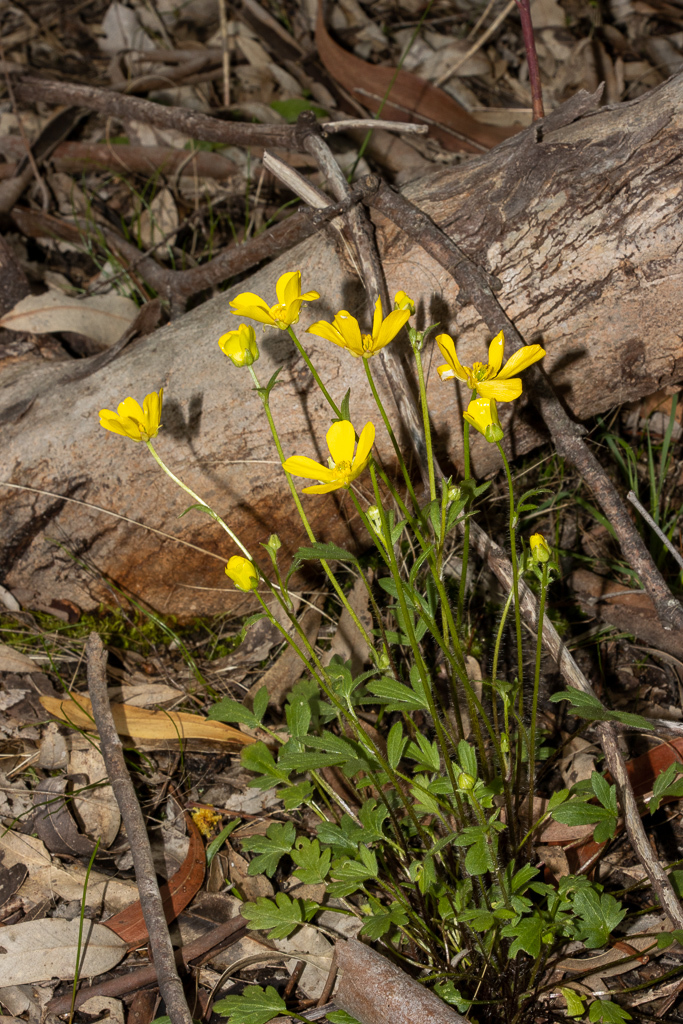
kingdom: Plantae
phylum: Tracheophyta
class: Magnoliopsida
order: Ranunculales
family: Ranunculaceae
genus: Ranunculus
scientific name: Ranunculus lappaceus
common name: Australian buttercup
